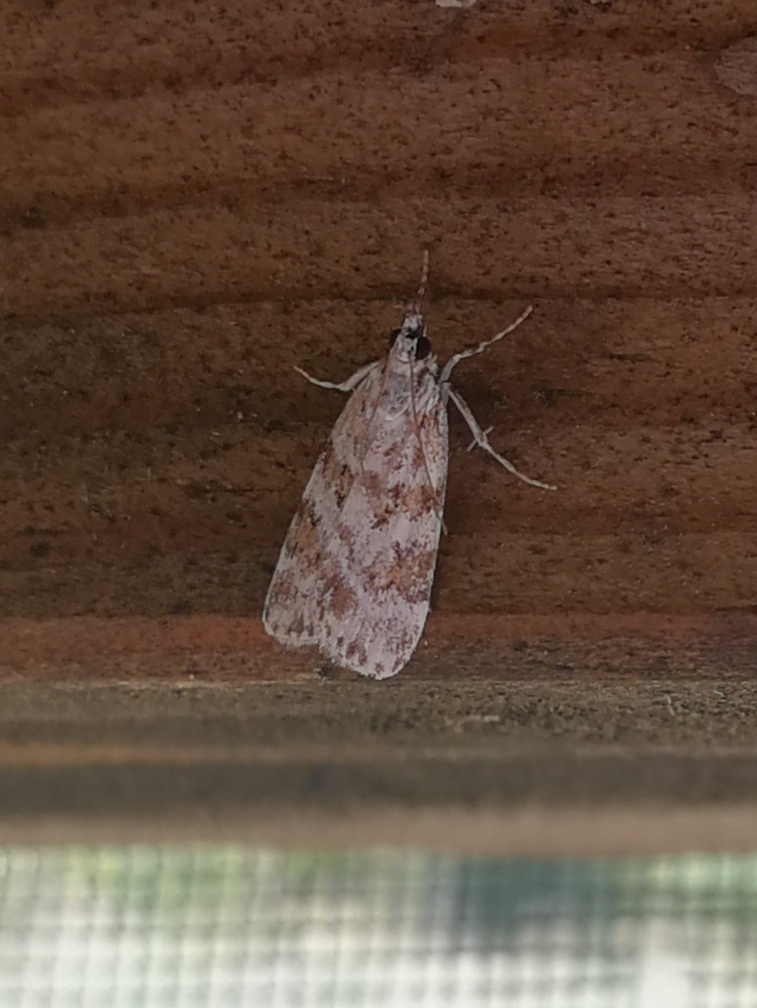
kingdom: Animalia
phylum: Arthropoda
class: Insecta
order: Lepidoptera
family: Crambidae
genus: Scoparia
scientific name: Scoparia ingratella
